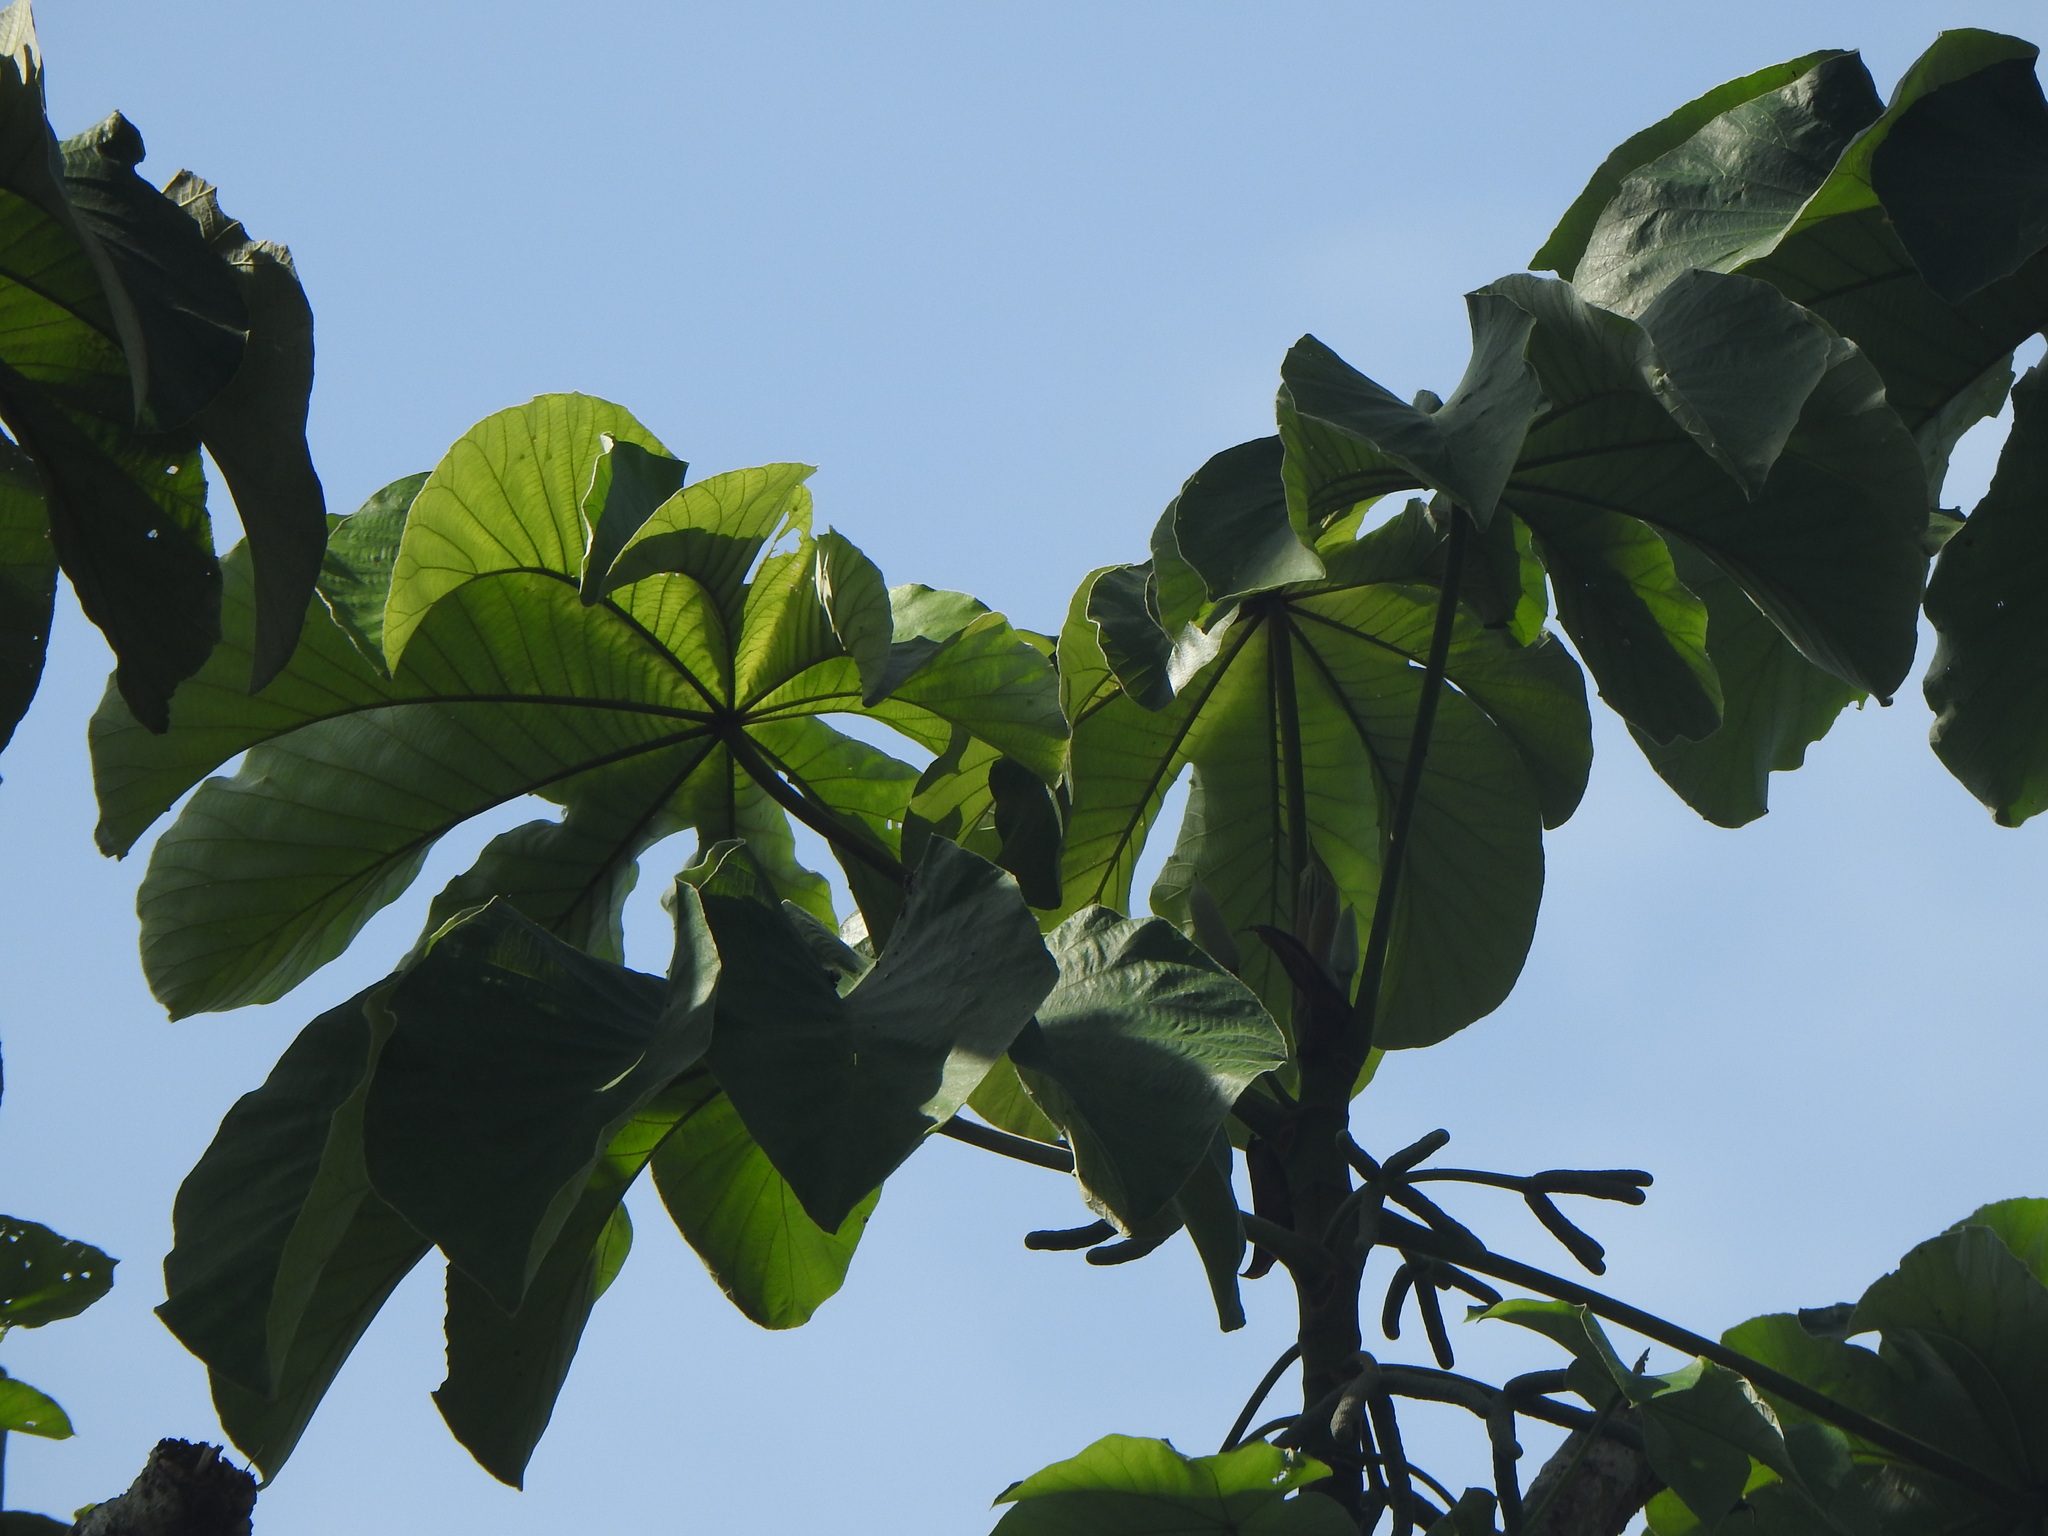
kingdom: Plantae
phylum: Tracheophyta
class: Magnoliopsida
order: Rosales
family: Urticaceae
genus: Cecropia
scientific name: Cecropia peltata
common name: Trumpet-tree
